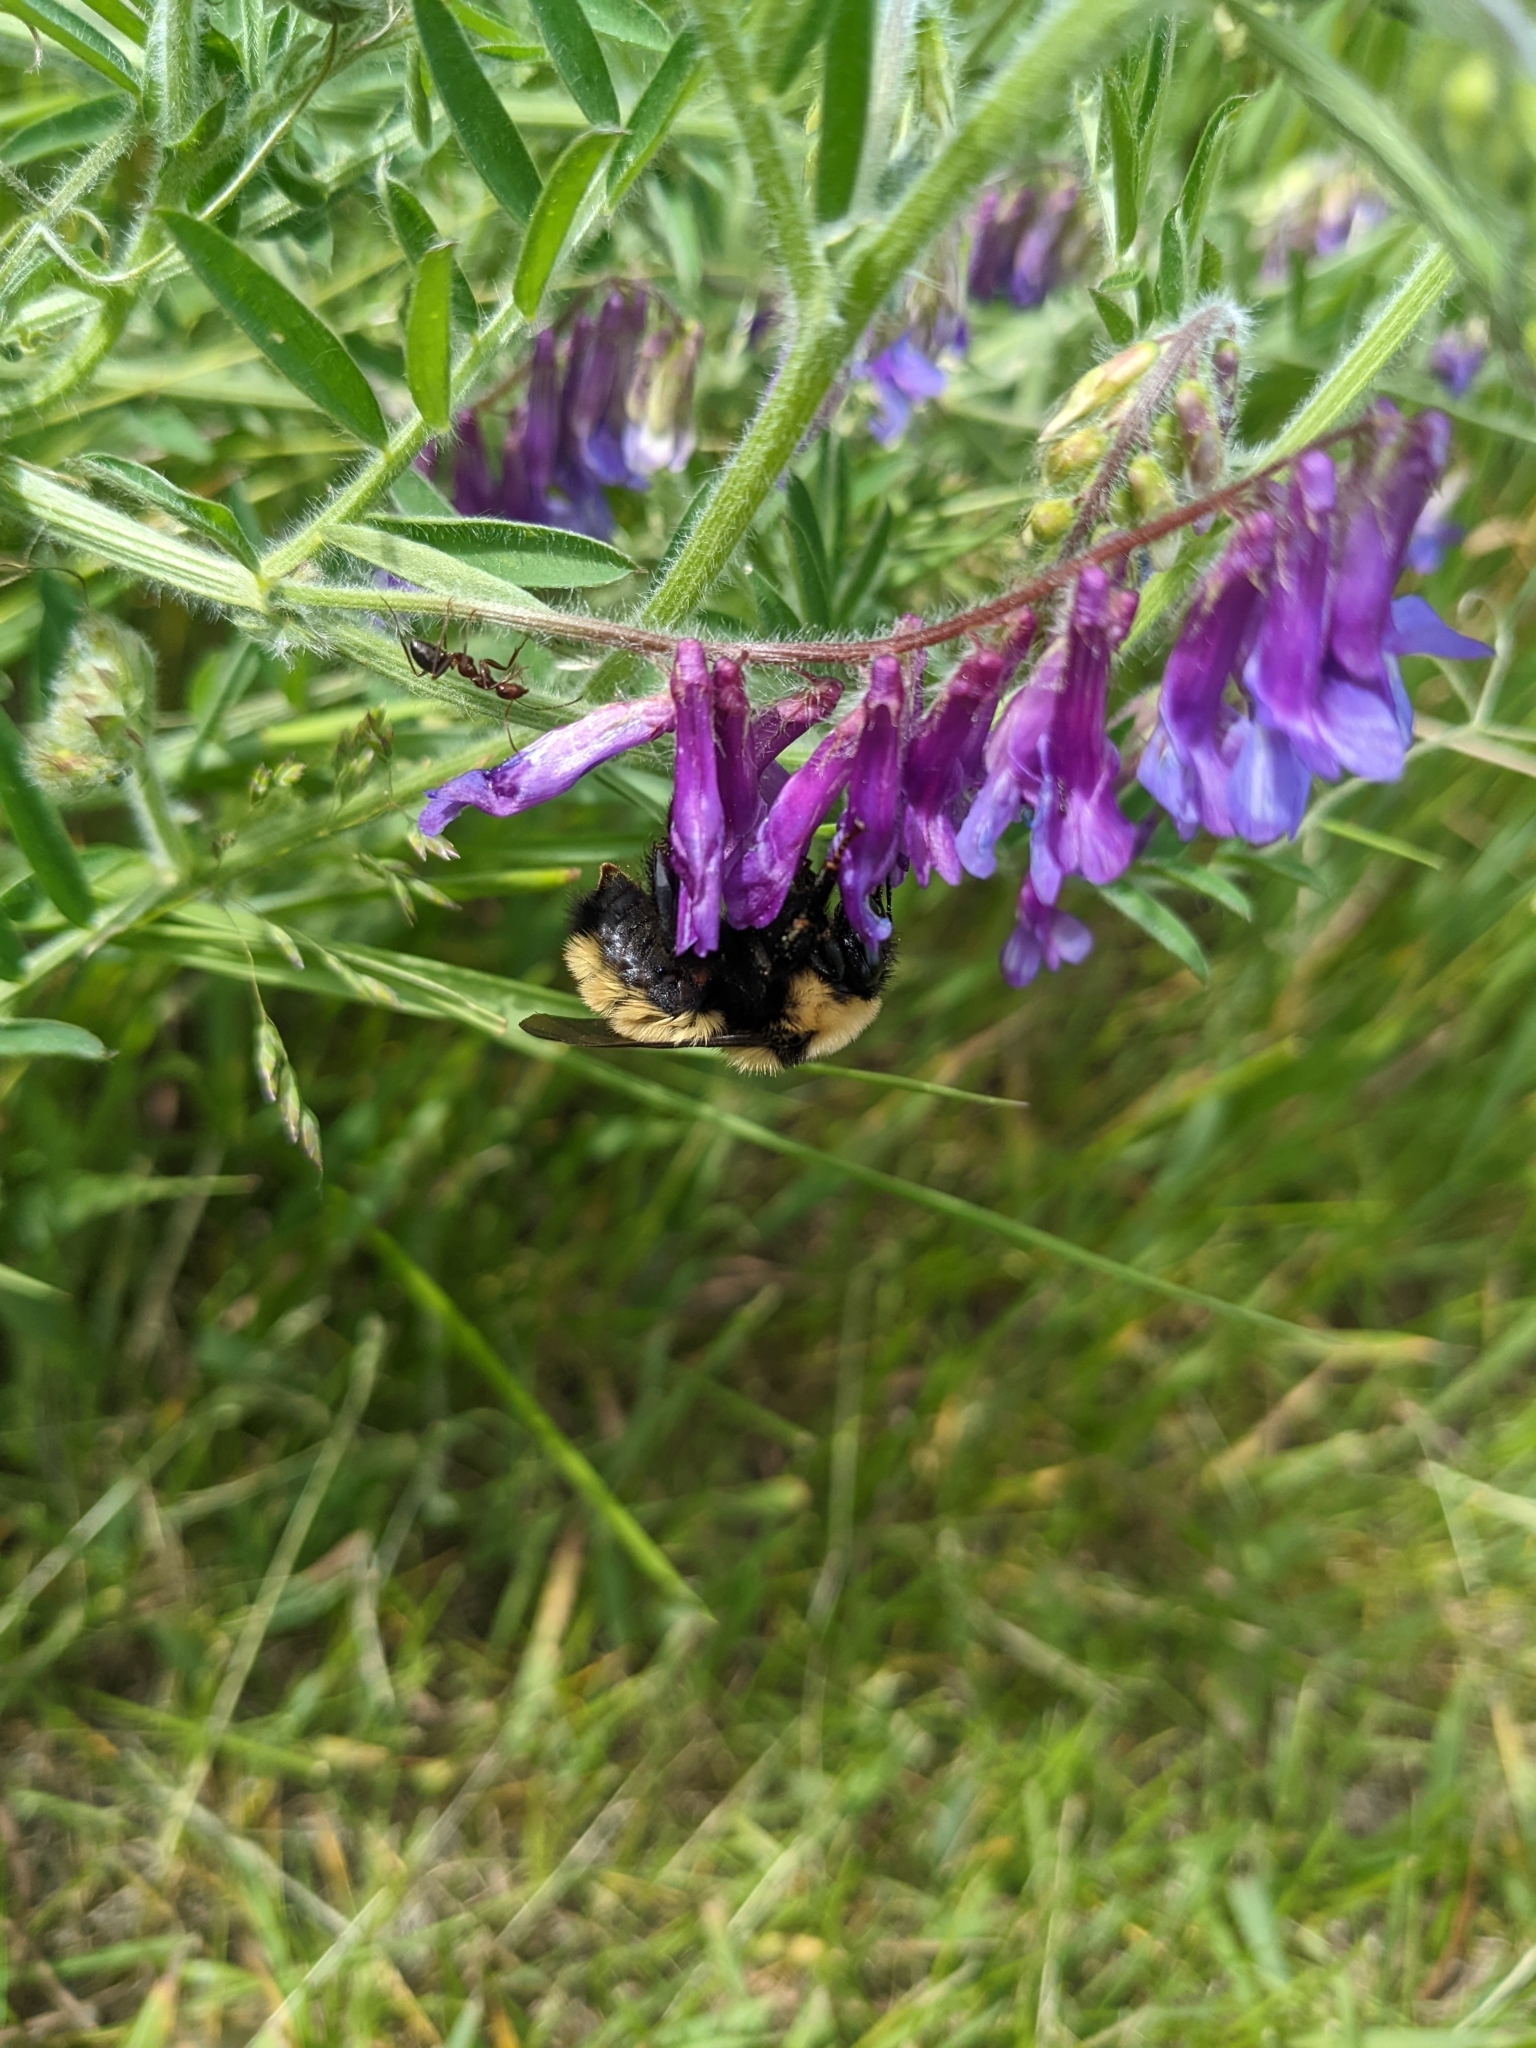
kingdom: Animalia
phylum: Arthropoda
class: Insecta
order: Hymenoptera
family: Apidae
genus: Bombus
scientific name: Bombus fervidus
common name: Yellow bumble bee
